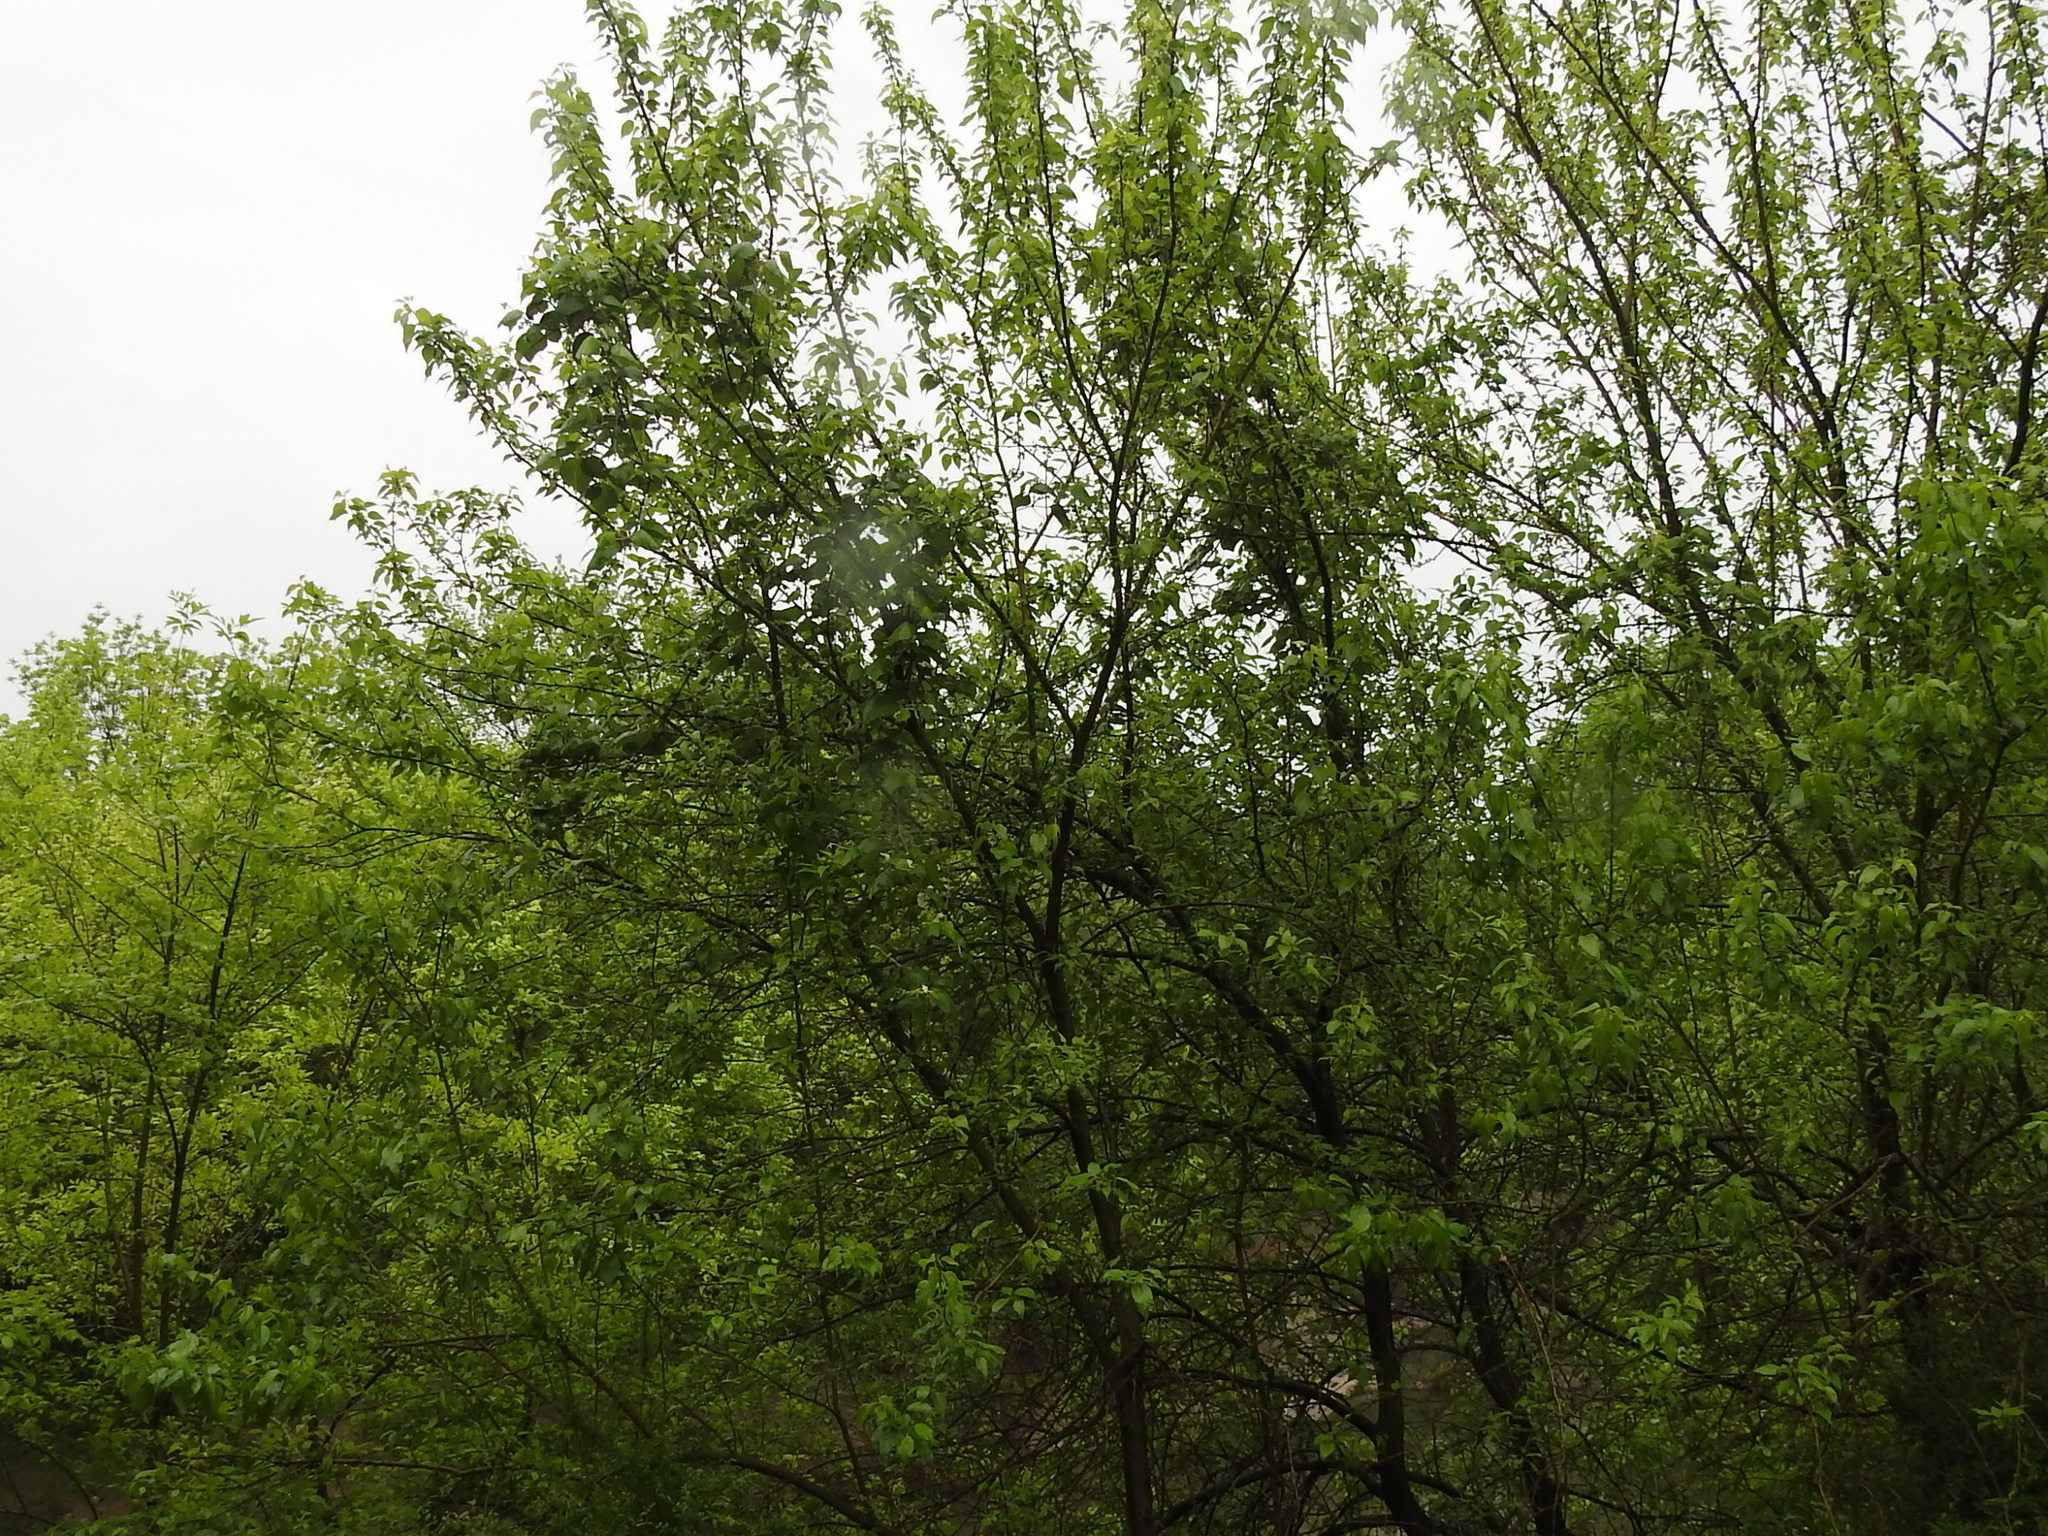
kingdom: Plantae
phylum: Tracheophyta
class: Magnoliopsida
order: Rosales
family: Moraceae
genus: Maclura
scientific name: Maclura pomifera
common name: Osage-orange
